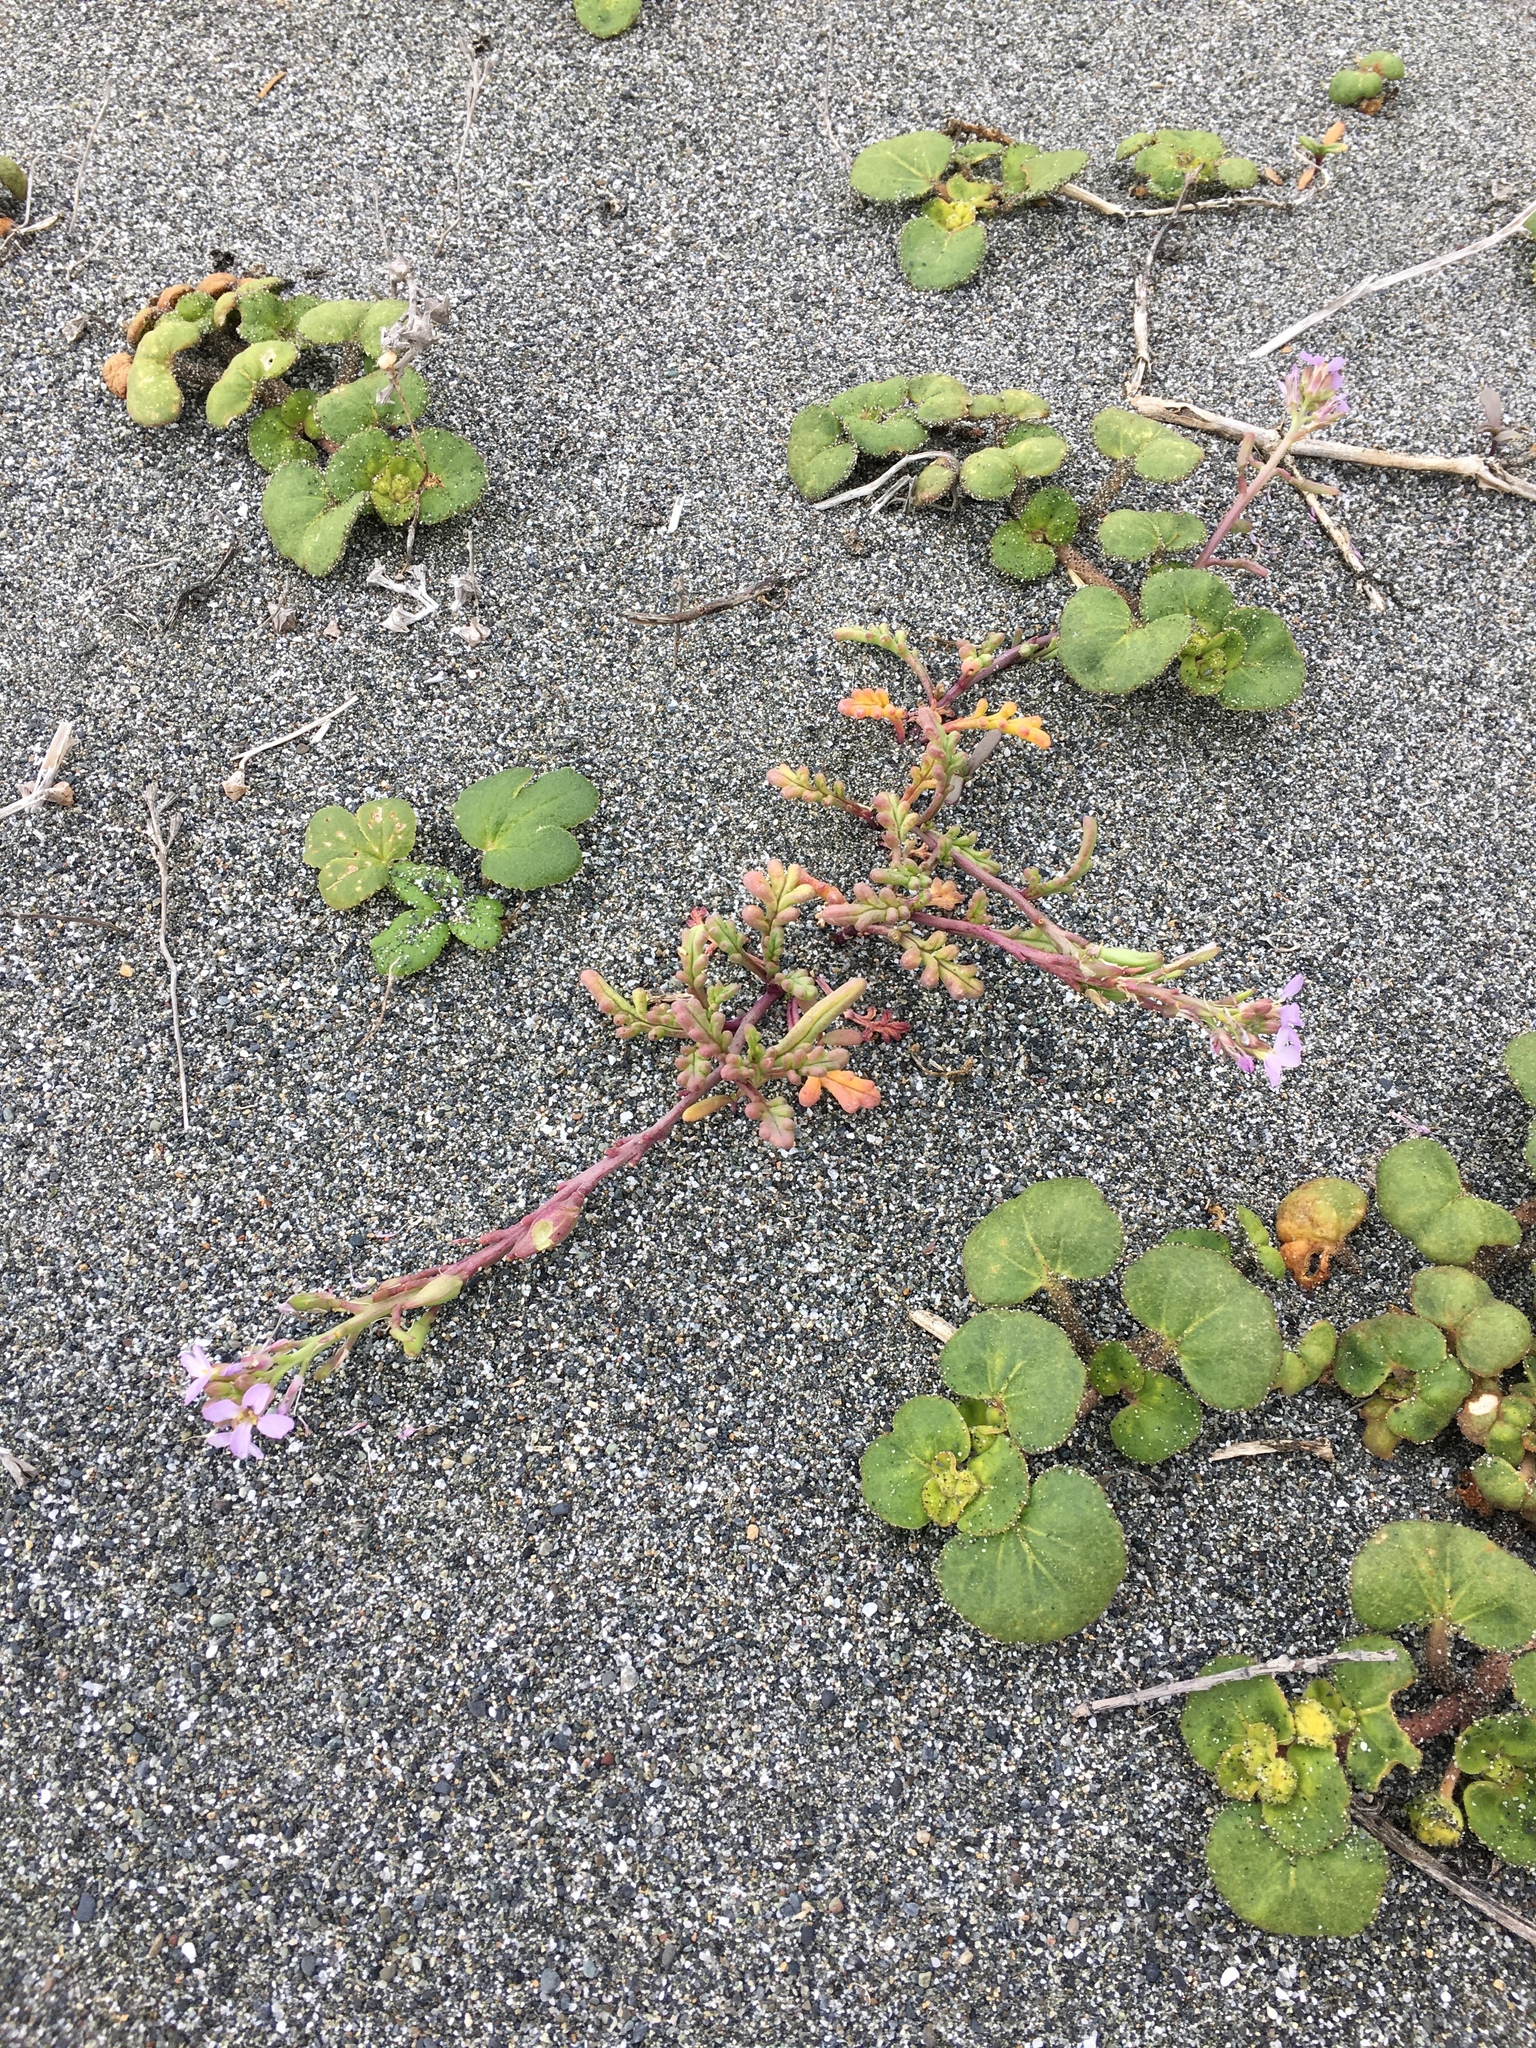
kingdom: Plantae
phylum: Tracheophyta
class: Magnoliopsida
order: Brassicales
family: Brassicaceae
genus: Cakile
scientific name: Cakile maritima
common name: Sea rocket
